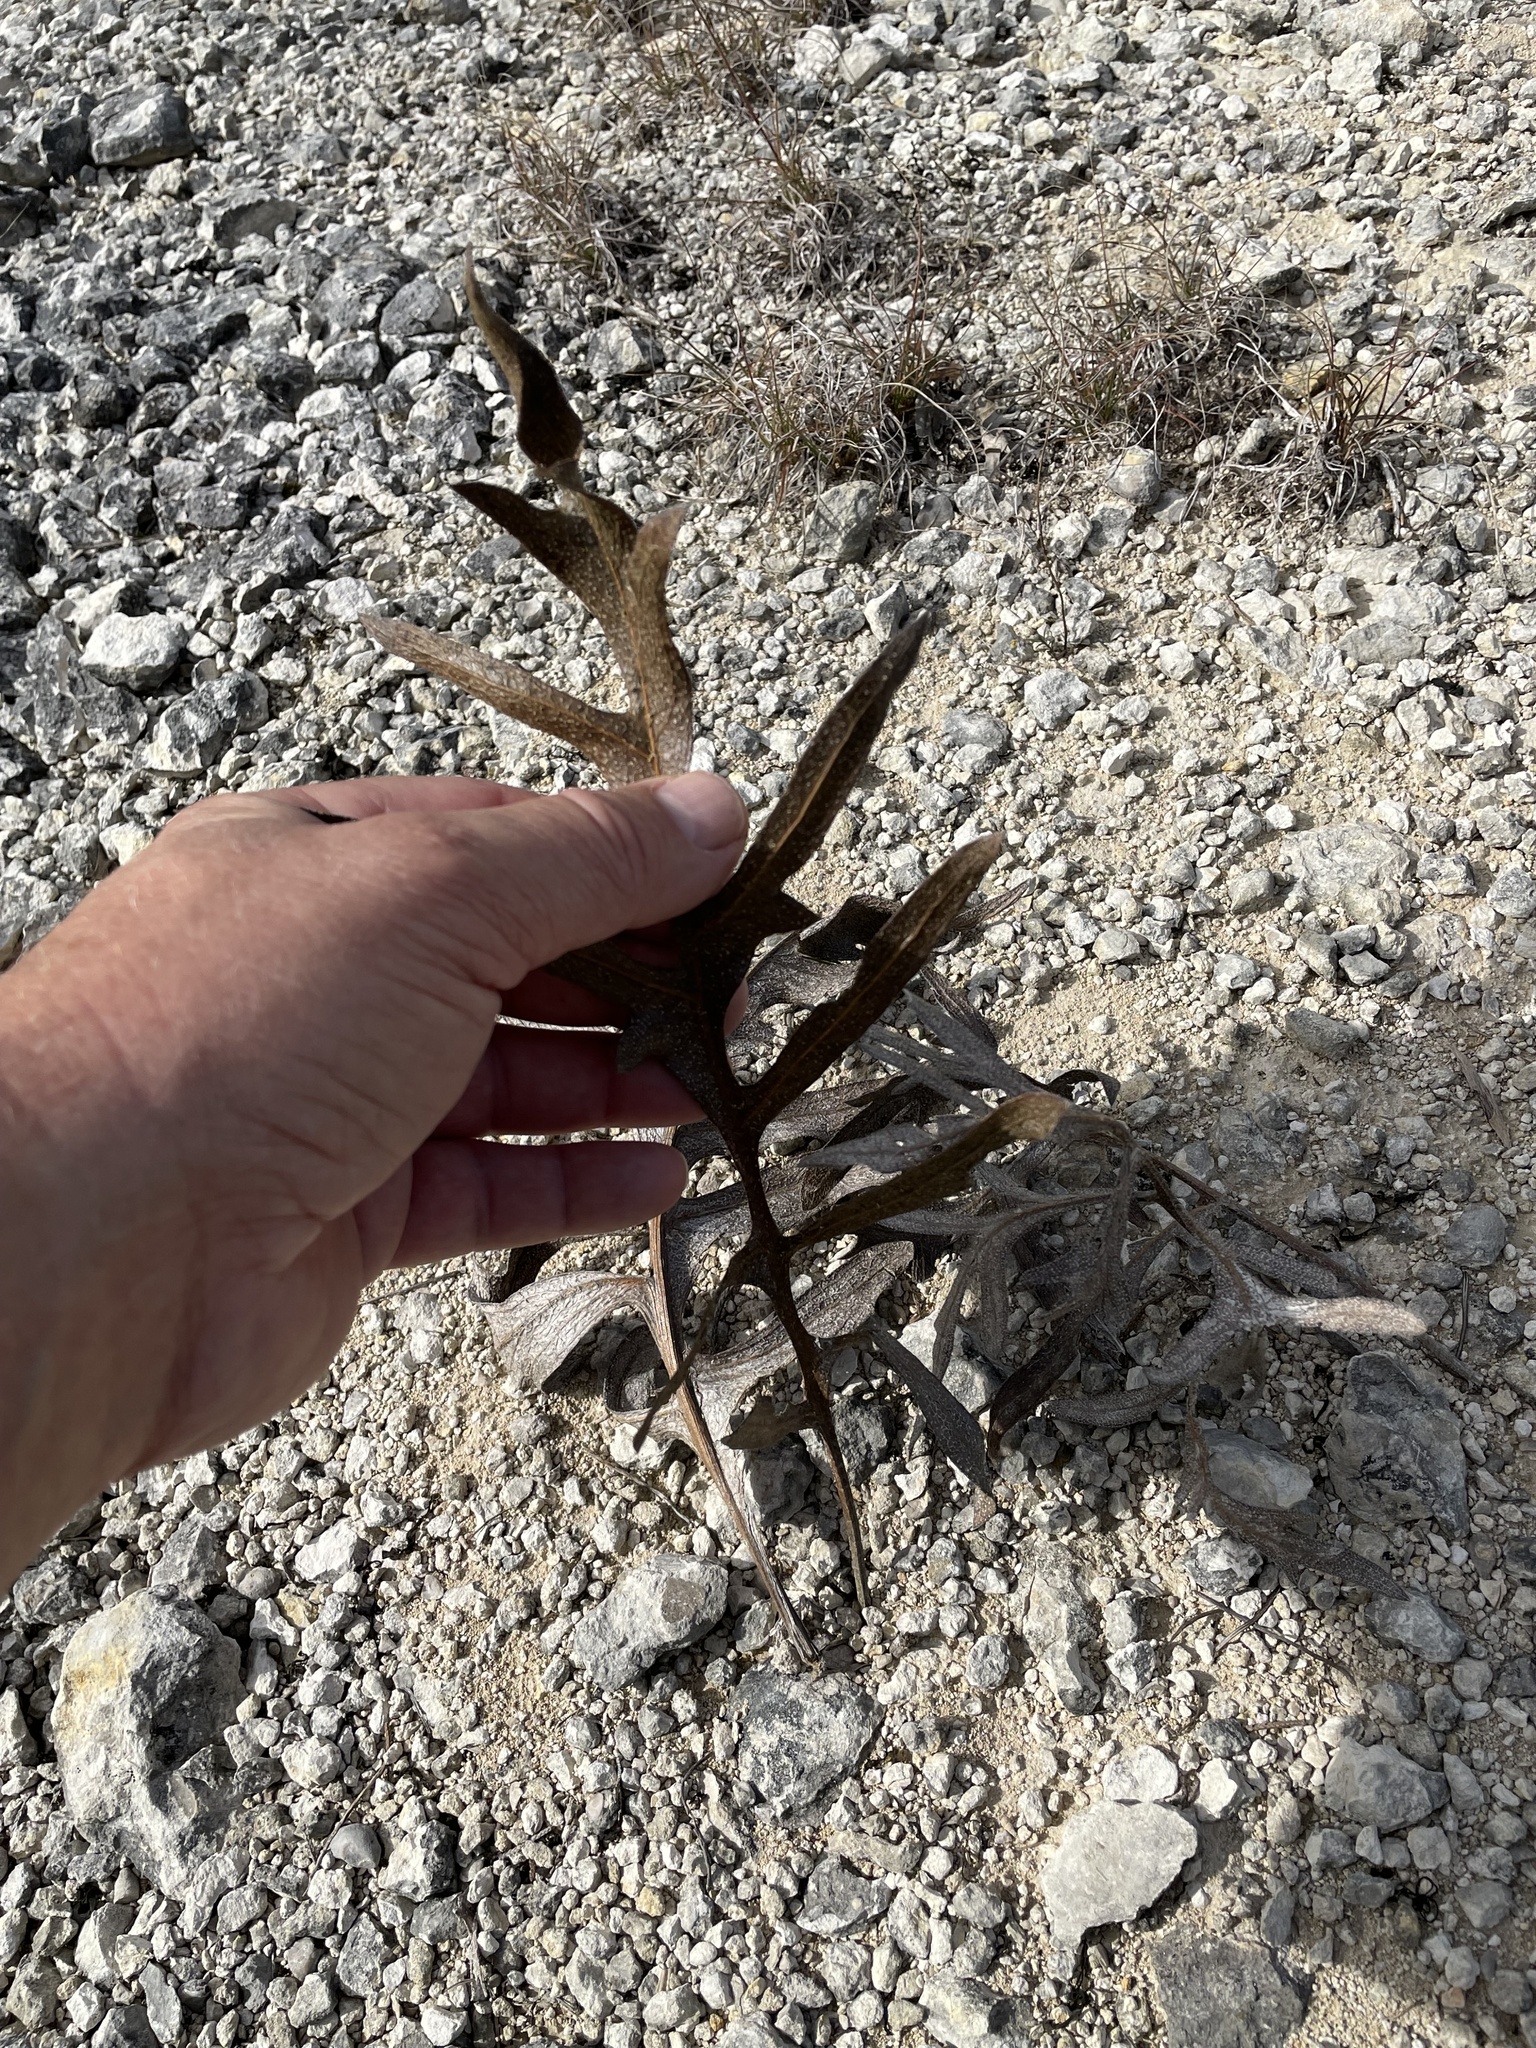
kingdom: Plantae
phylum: Tracheophyta
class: Magnoliopsida
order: Asterales
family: Asteraceae
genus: Silphium
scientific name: Silphium albiflorum
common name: White rosinweed
